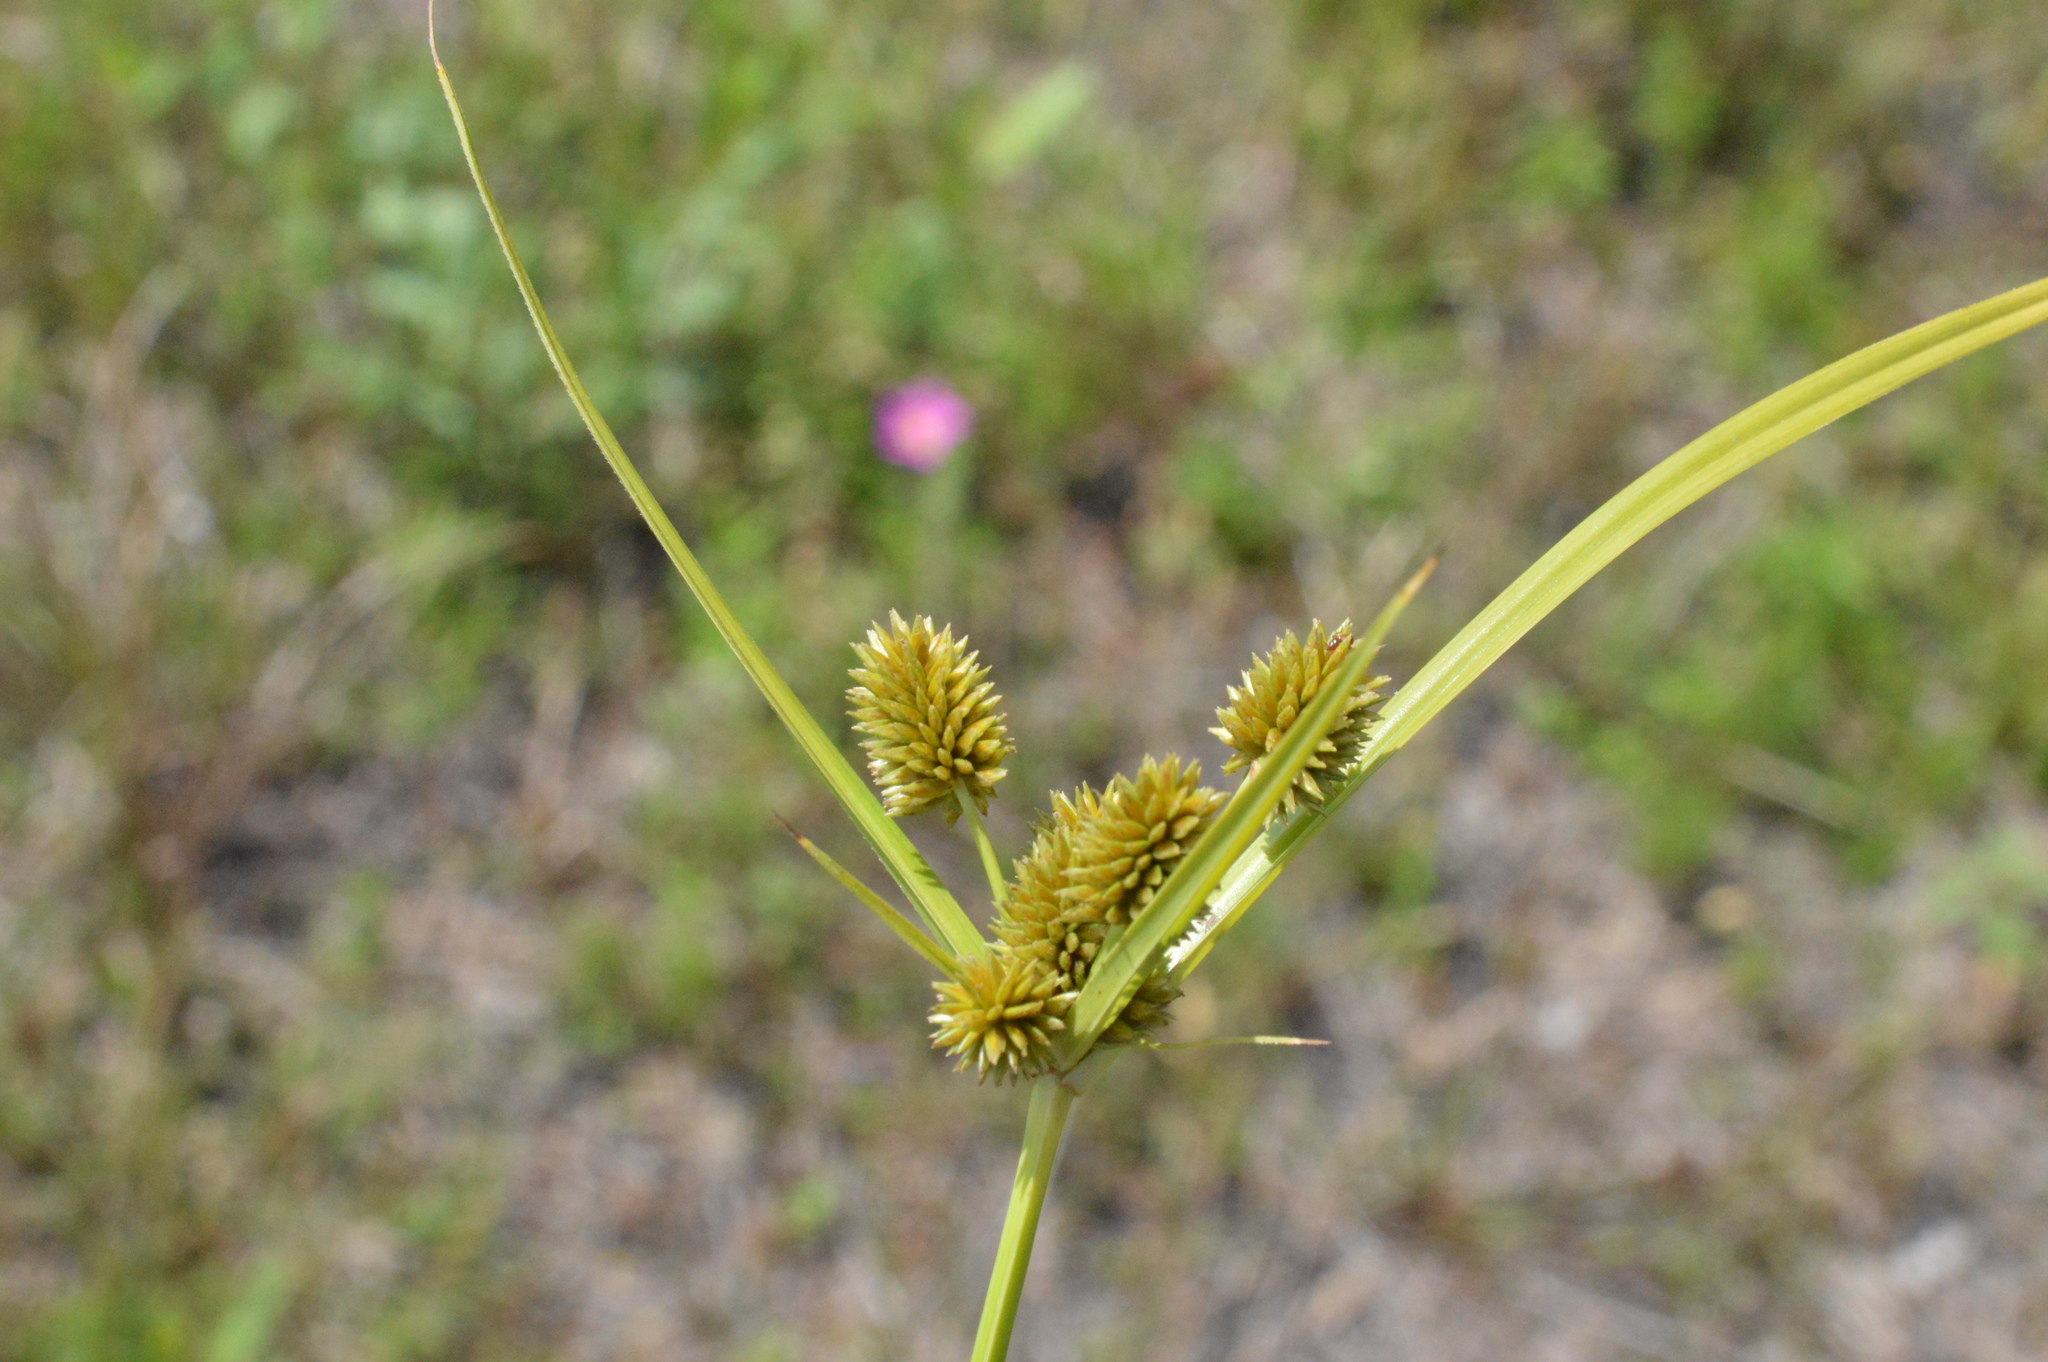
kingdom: Plantae
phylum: Tracheophyta
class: Liliopsida
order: Poales
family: Cyperaceae
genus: Cyperus
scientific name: Cyperus retrorsus
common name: Pinebarren flat sedge
